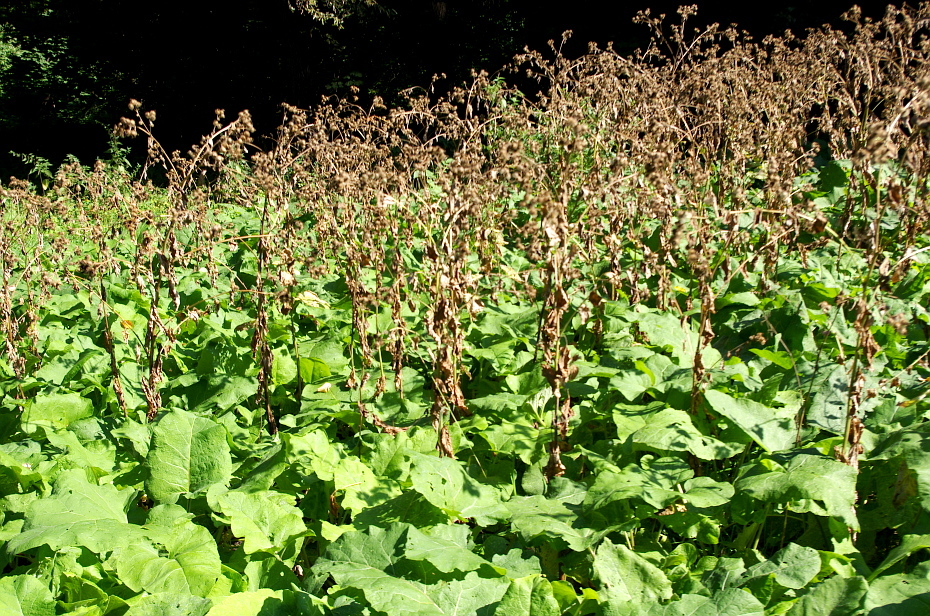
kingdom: Plantae
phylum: Tracheophyta
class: Magnoliopsida
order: Asterales
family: Asteraceae
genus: Arctium
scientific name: Arctium tomentosum
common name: Woolly burdock
